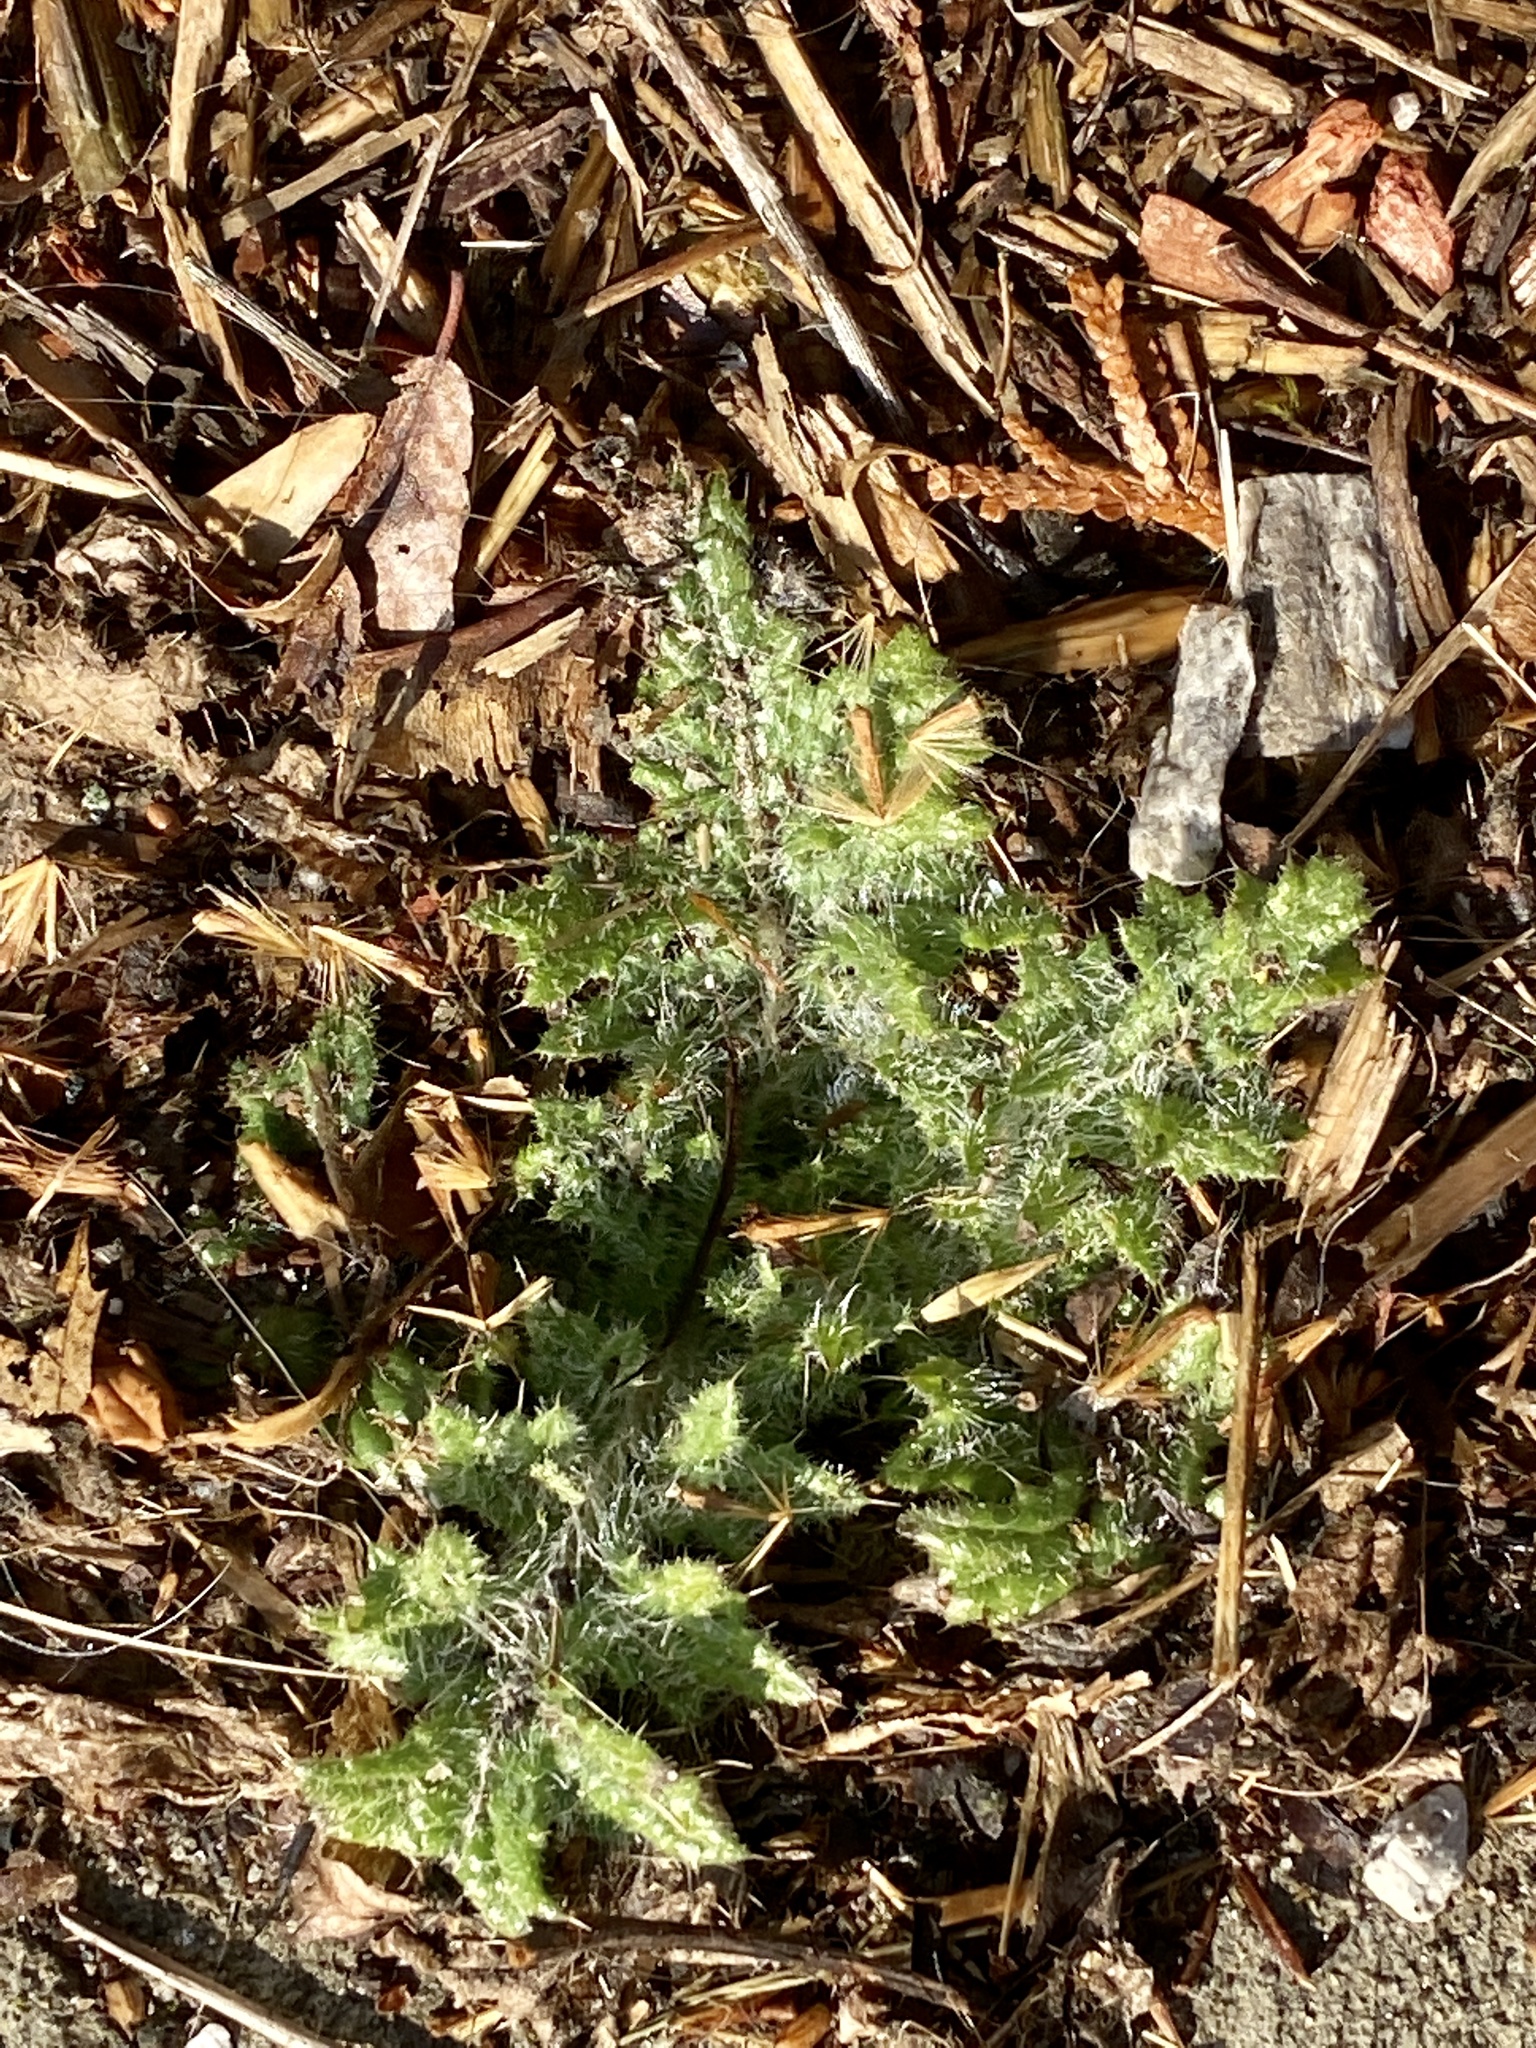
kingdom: Plantae
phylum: Tracheophyta
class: Magnoliopsida
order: Asterales
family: Asteraceae
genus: Cirsium
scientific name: Cirsium vulgare
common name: Bull thistle
